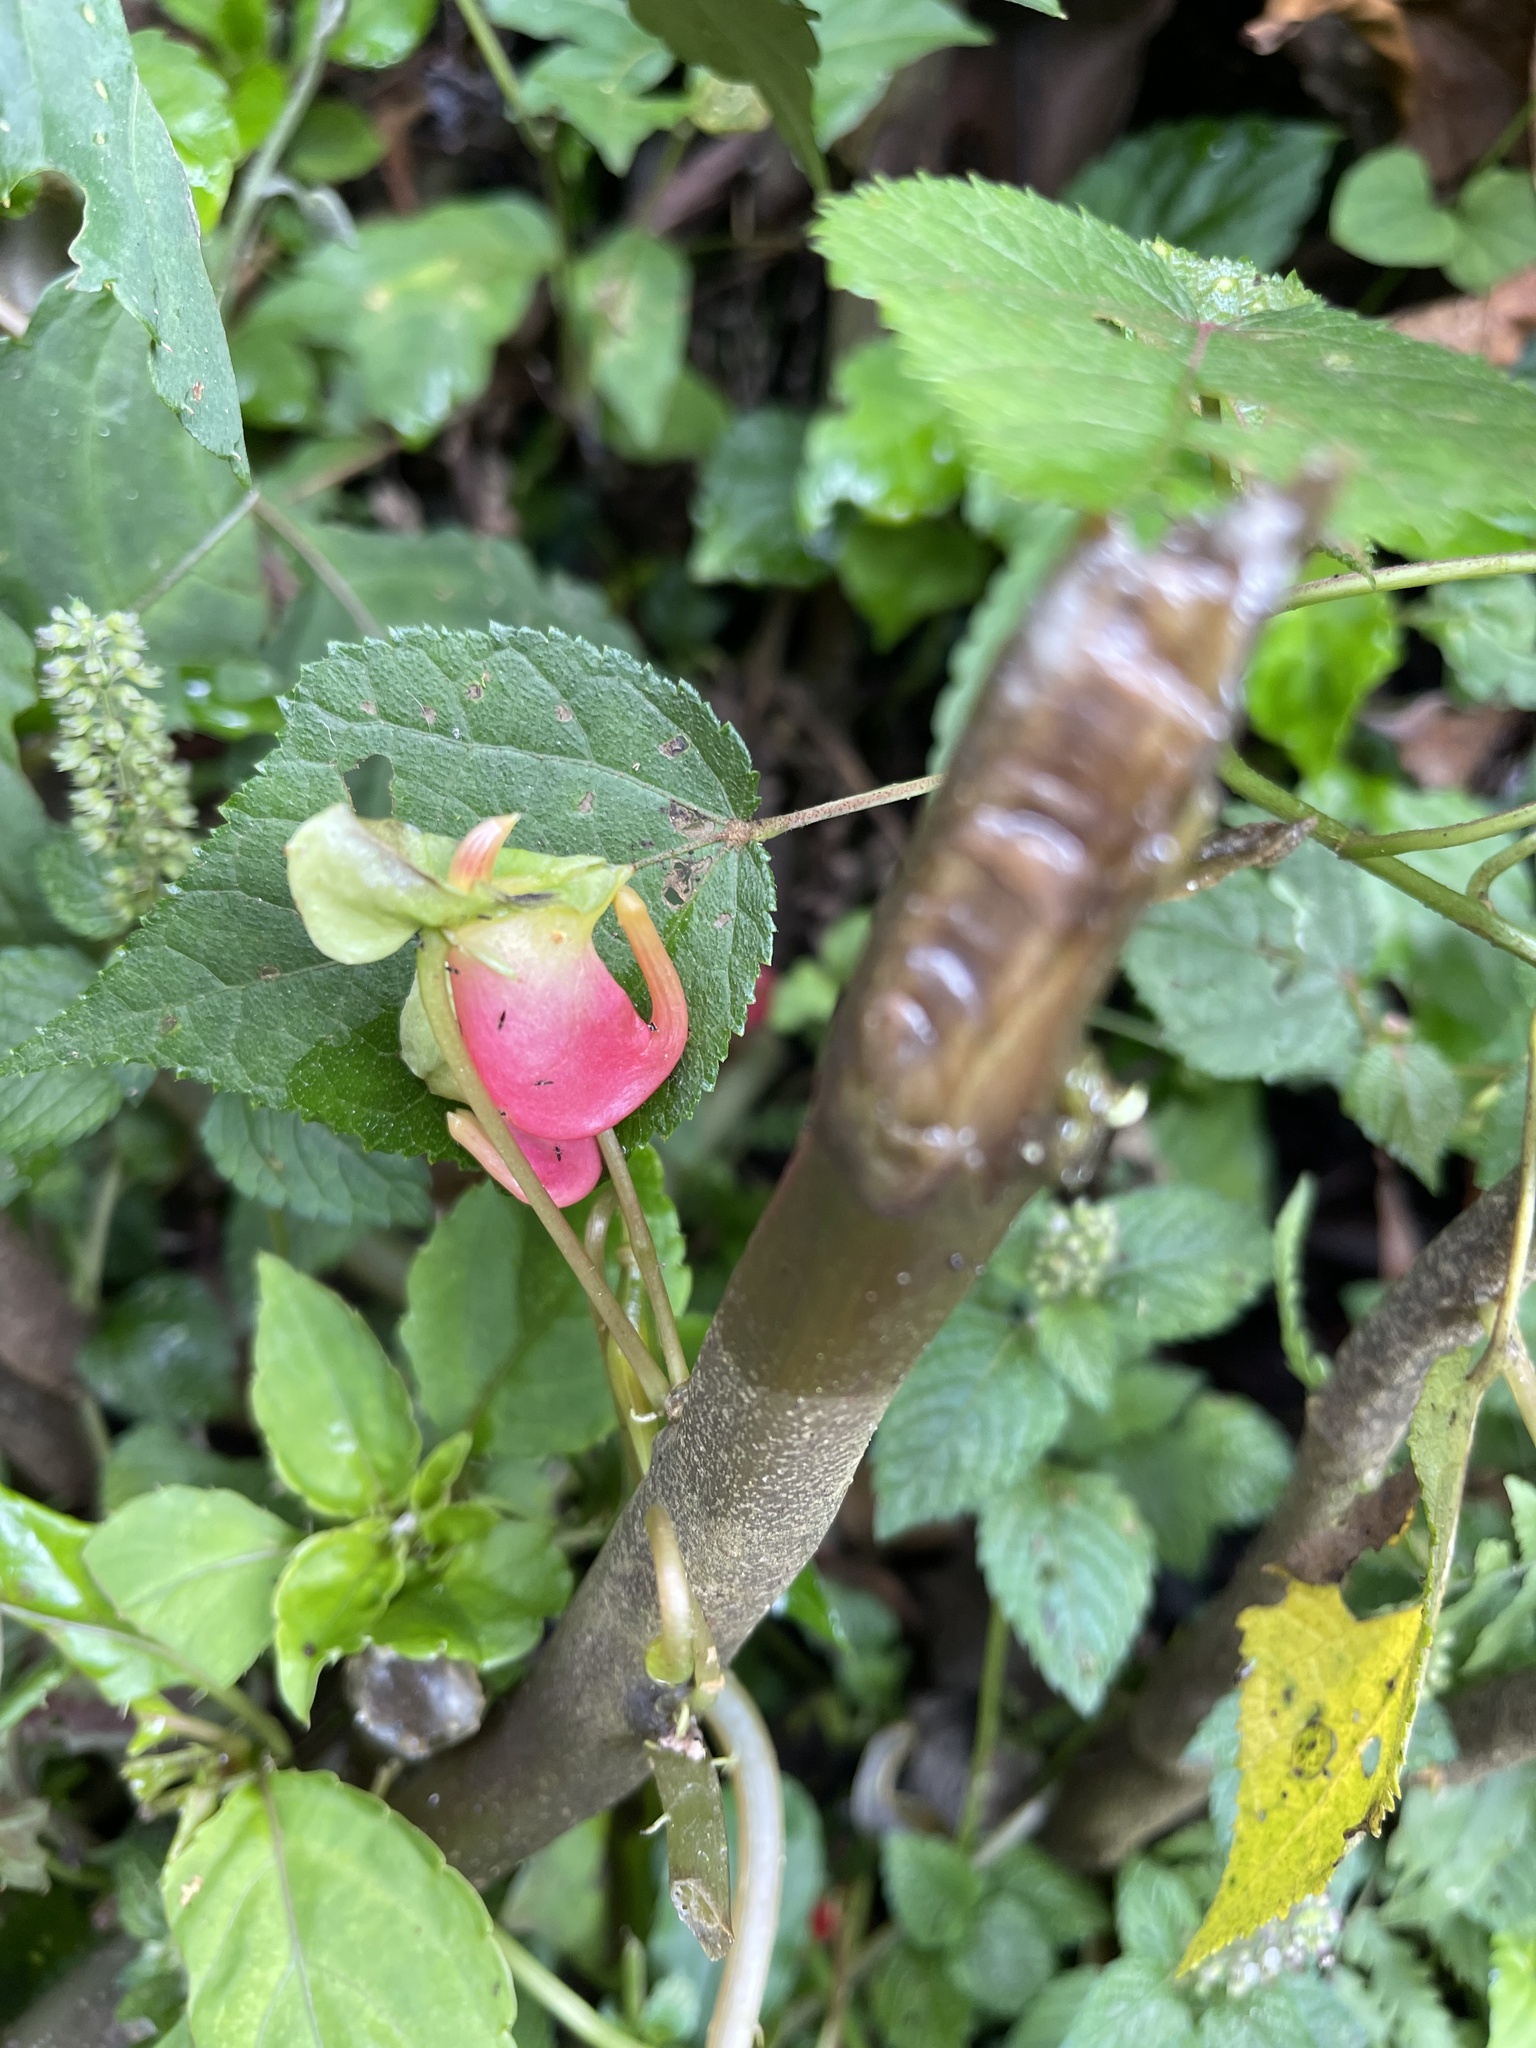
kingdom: Plantae
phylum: Tracheophyta
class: Magnoliopsida
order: Ericales
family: Balsaminaceae
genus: Impatiens
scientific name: Impatiens niamniamensis
